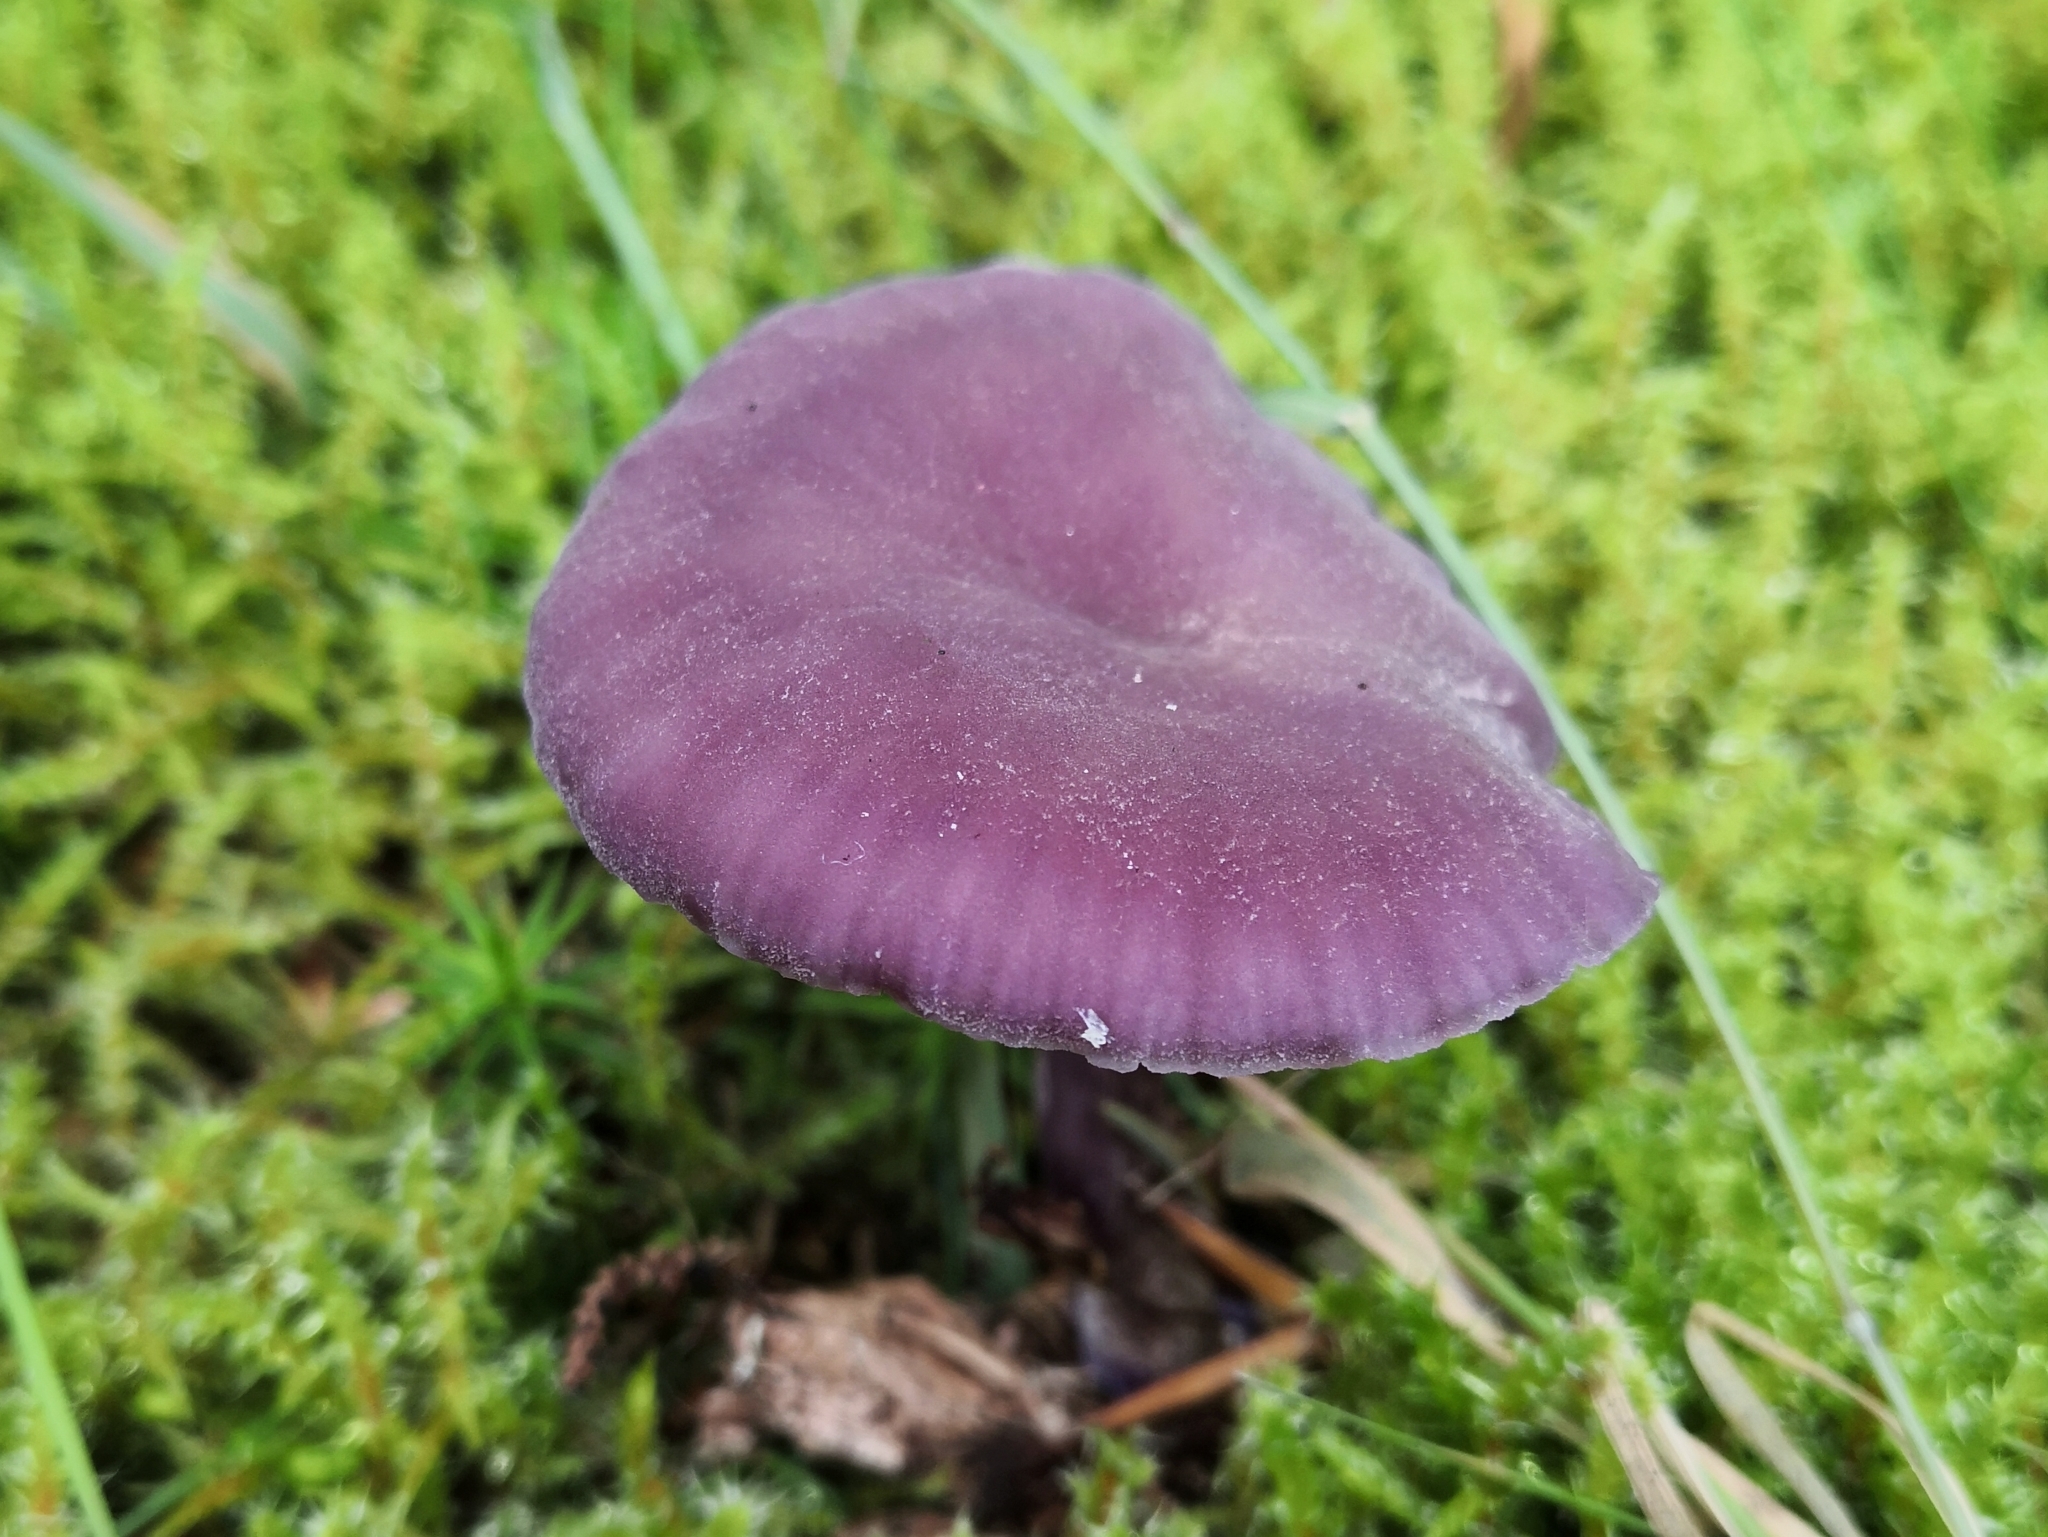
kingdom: Fungi
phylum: Basidiomycota
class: Agaricomycetes
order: Agaricales
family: Hydnangiaceae
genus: Laccaria
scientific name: Laccaria amethystina
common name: Amethyst deceiver
